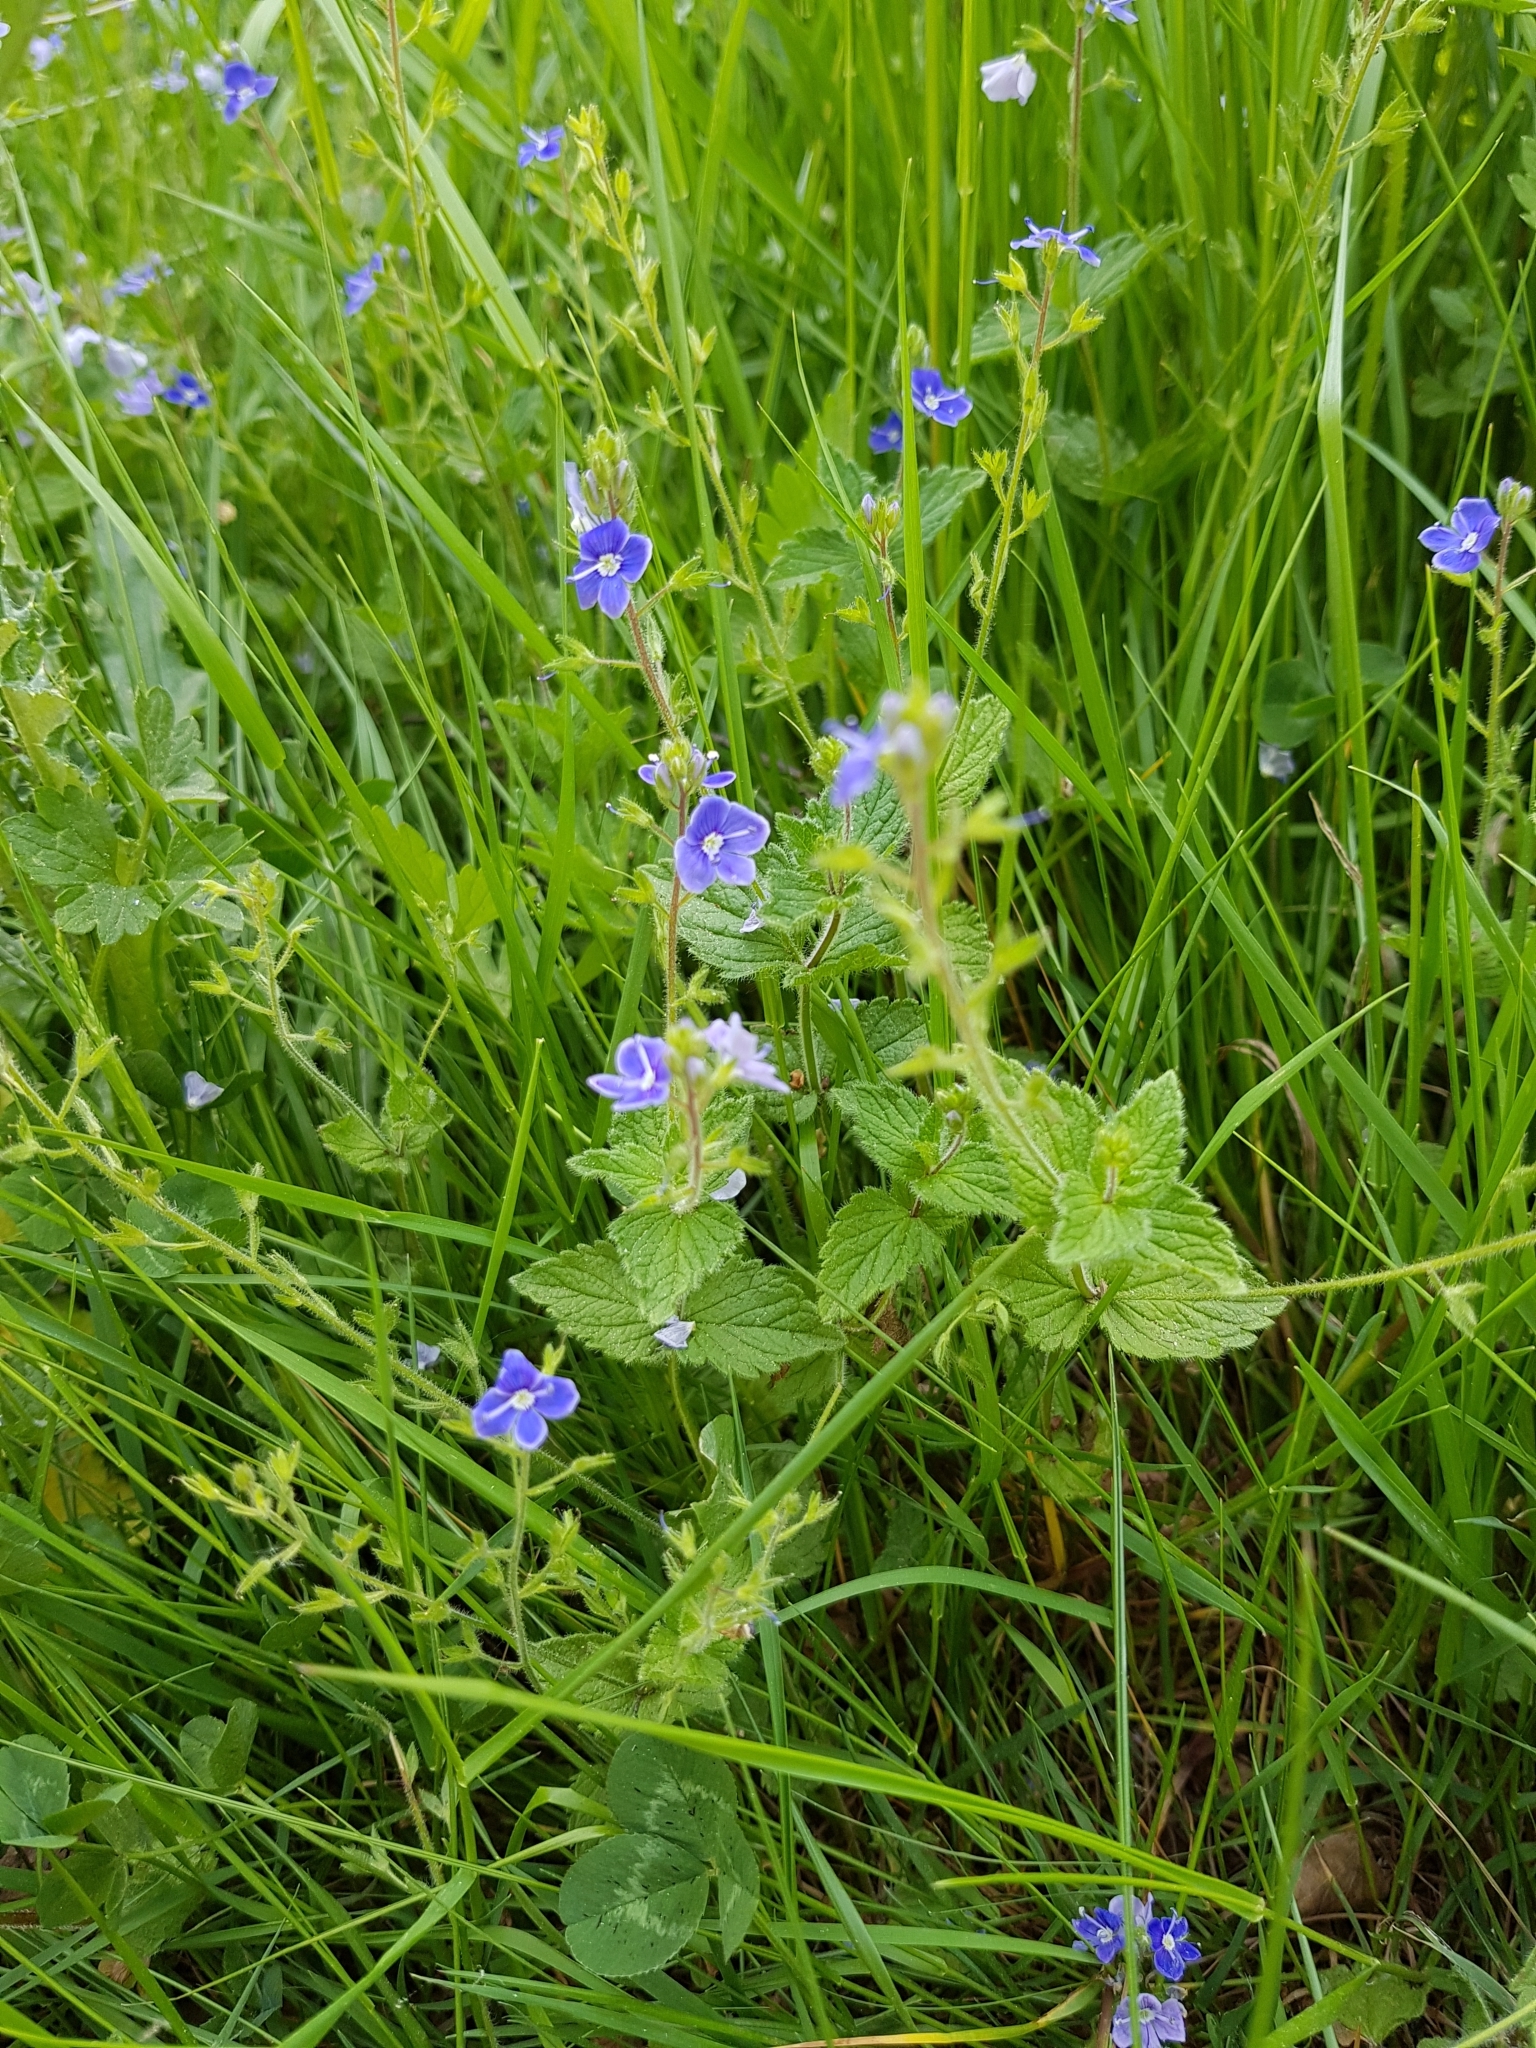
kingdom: Plantae
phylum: Tracheophyta
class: Magnoliopsida
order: Lamiales
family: Plantaginaceae
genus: Veronica
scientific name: Veronica chamaedrys
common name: Germander speedwell
